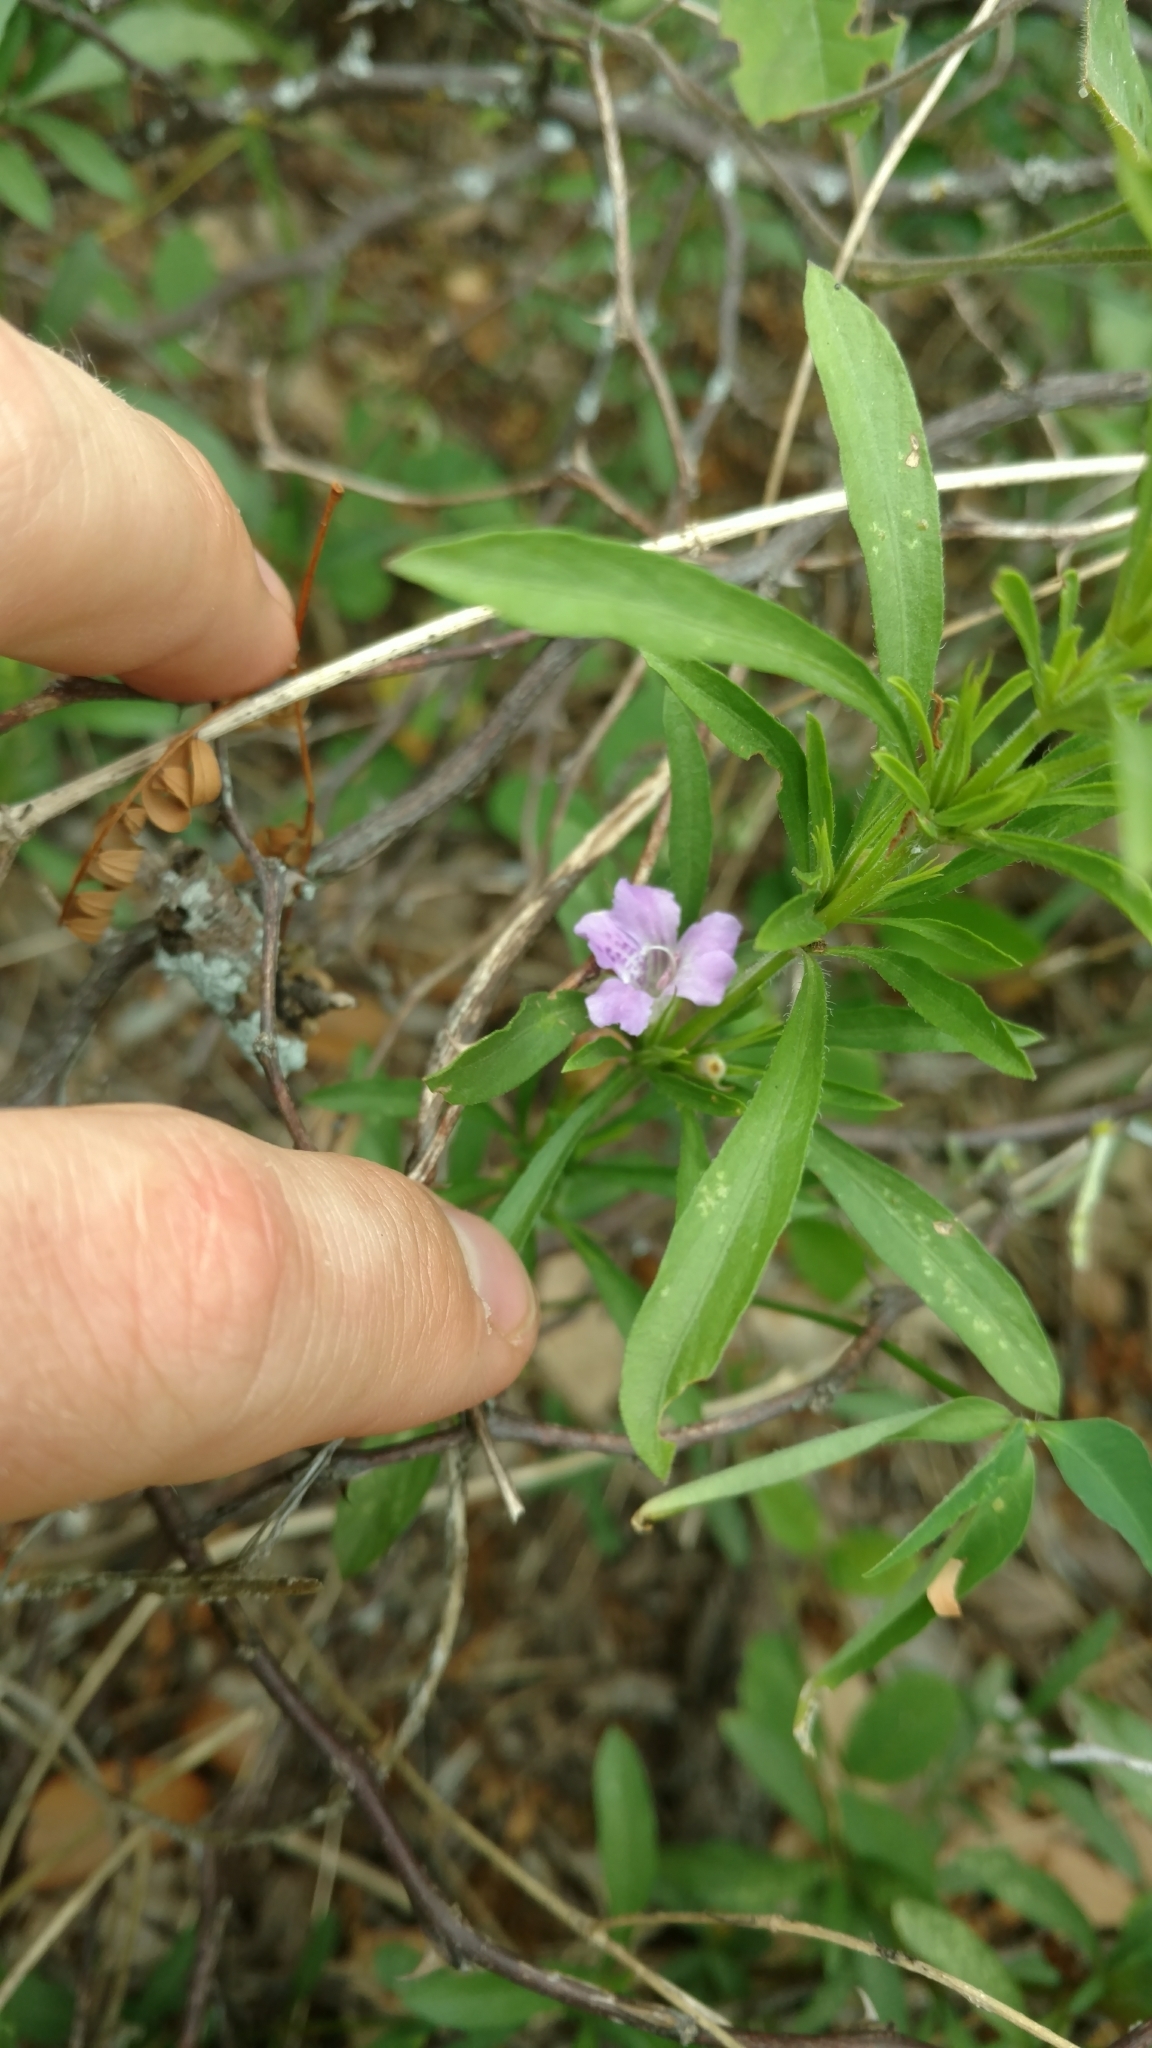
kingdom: Plantae
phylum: Tracheophyta
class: Magnoliopsida
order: Lamiales
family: Acanthaceae
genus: Dyschoriste
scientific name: Dyschoriste linearis
